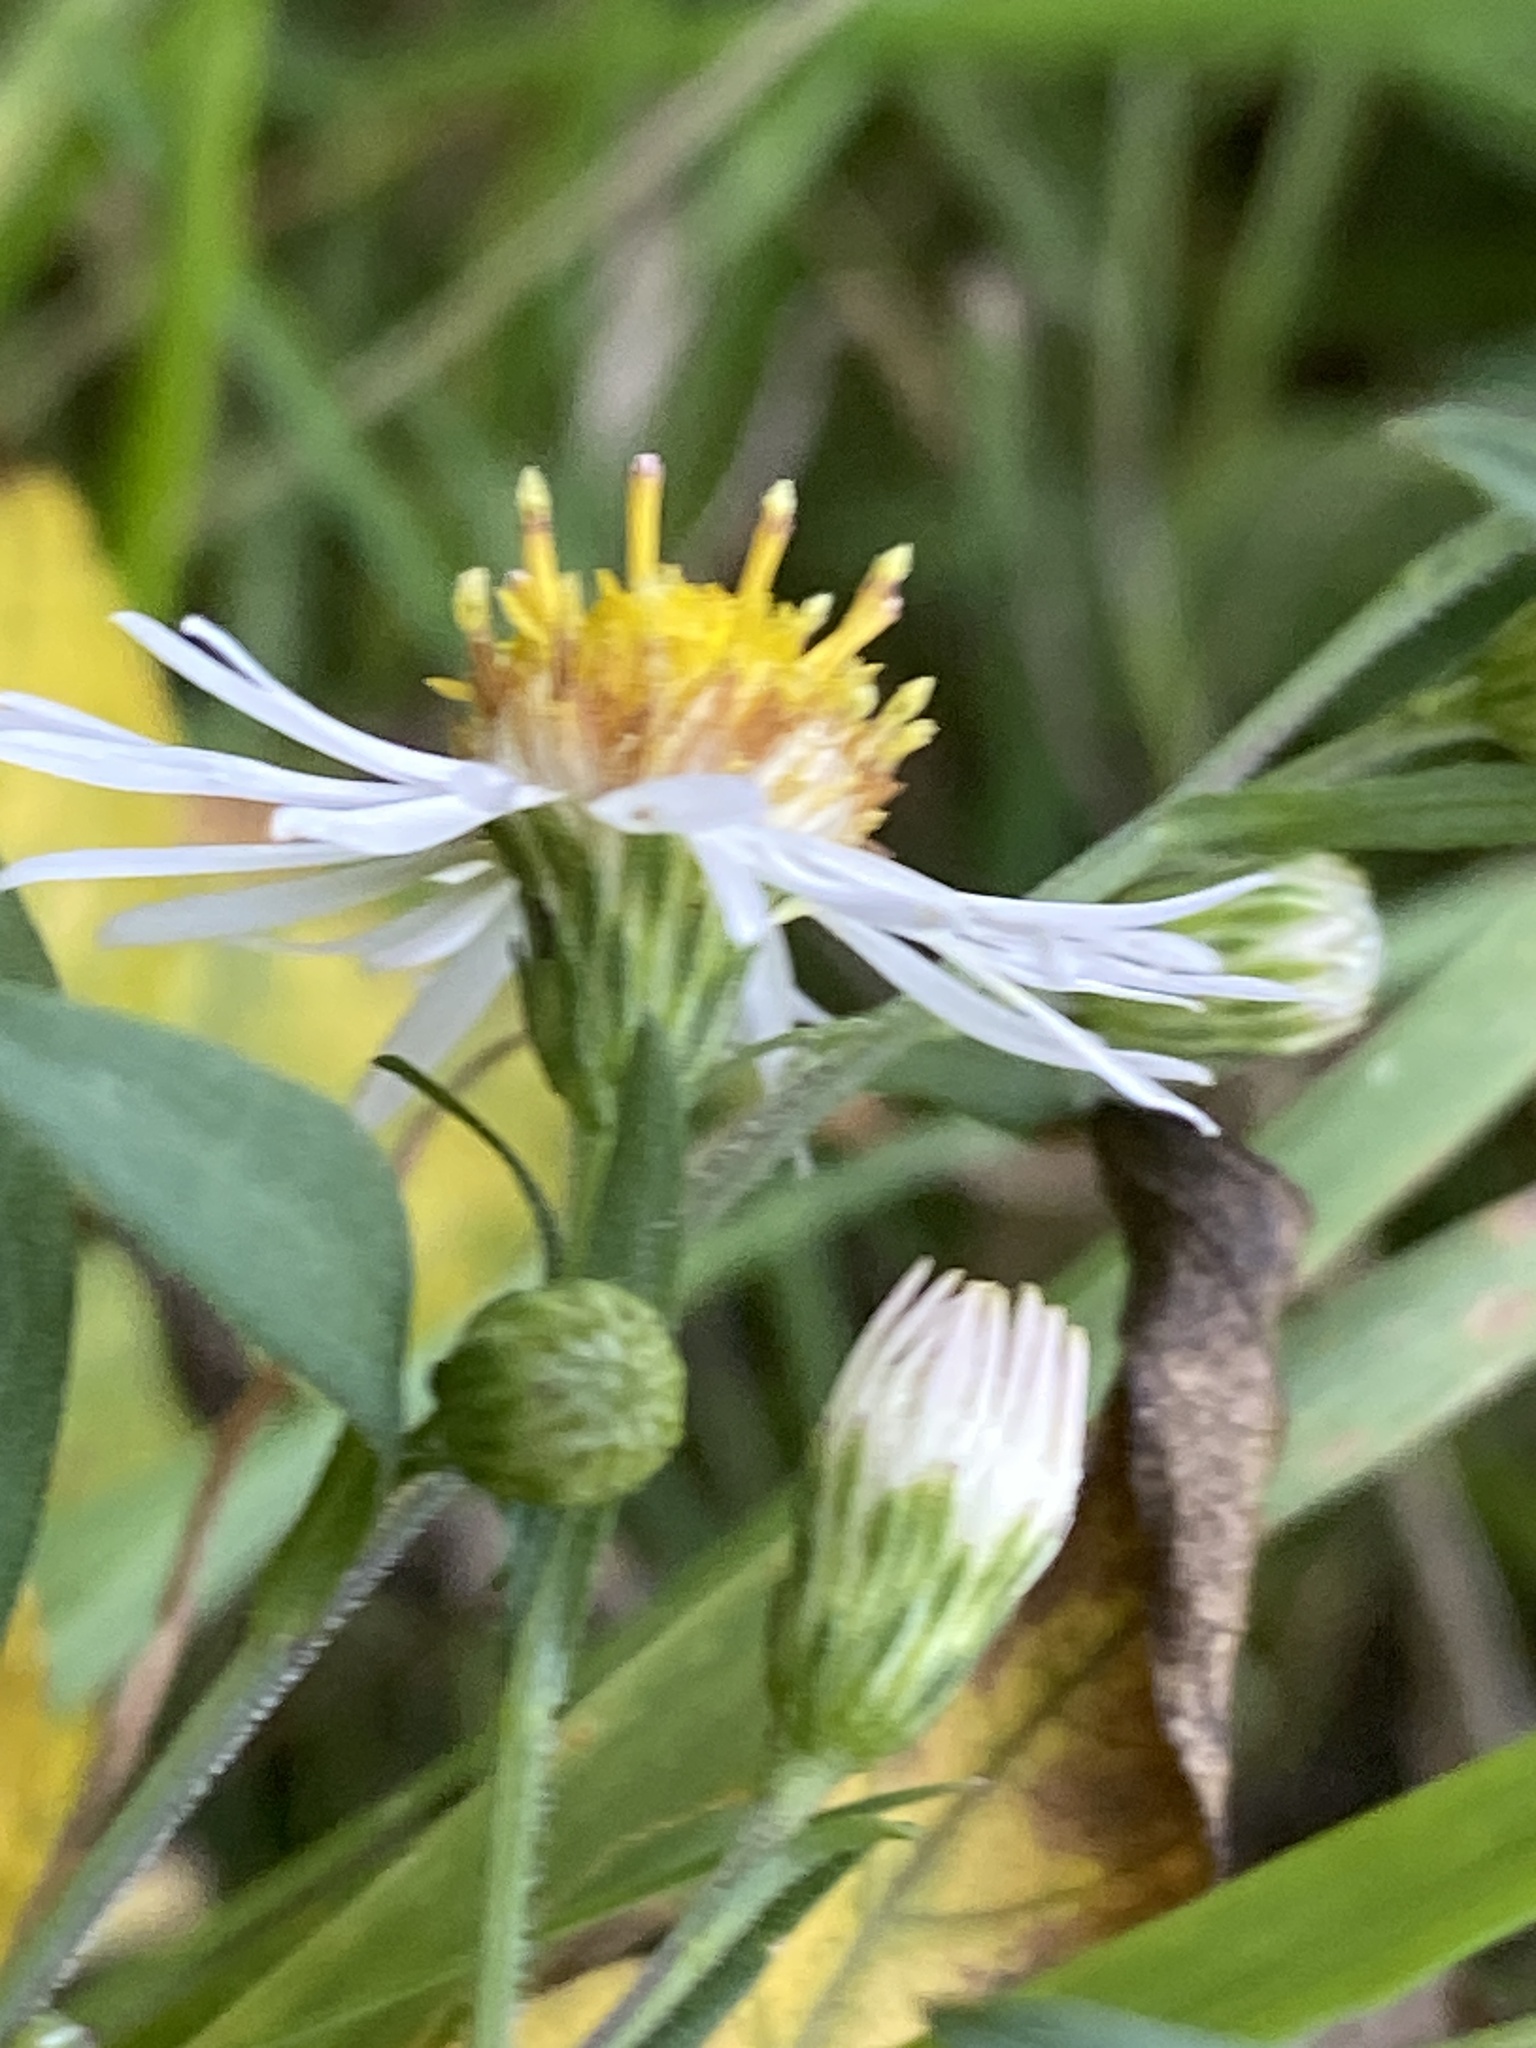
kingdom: Plantae
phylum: Tracheophyta
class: Magnoliopsida
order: Asterales
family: Asteraceae
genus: Symphyotrichum
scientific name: Symphyotrichum lanceolatum
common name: Panicled aster
